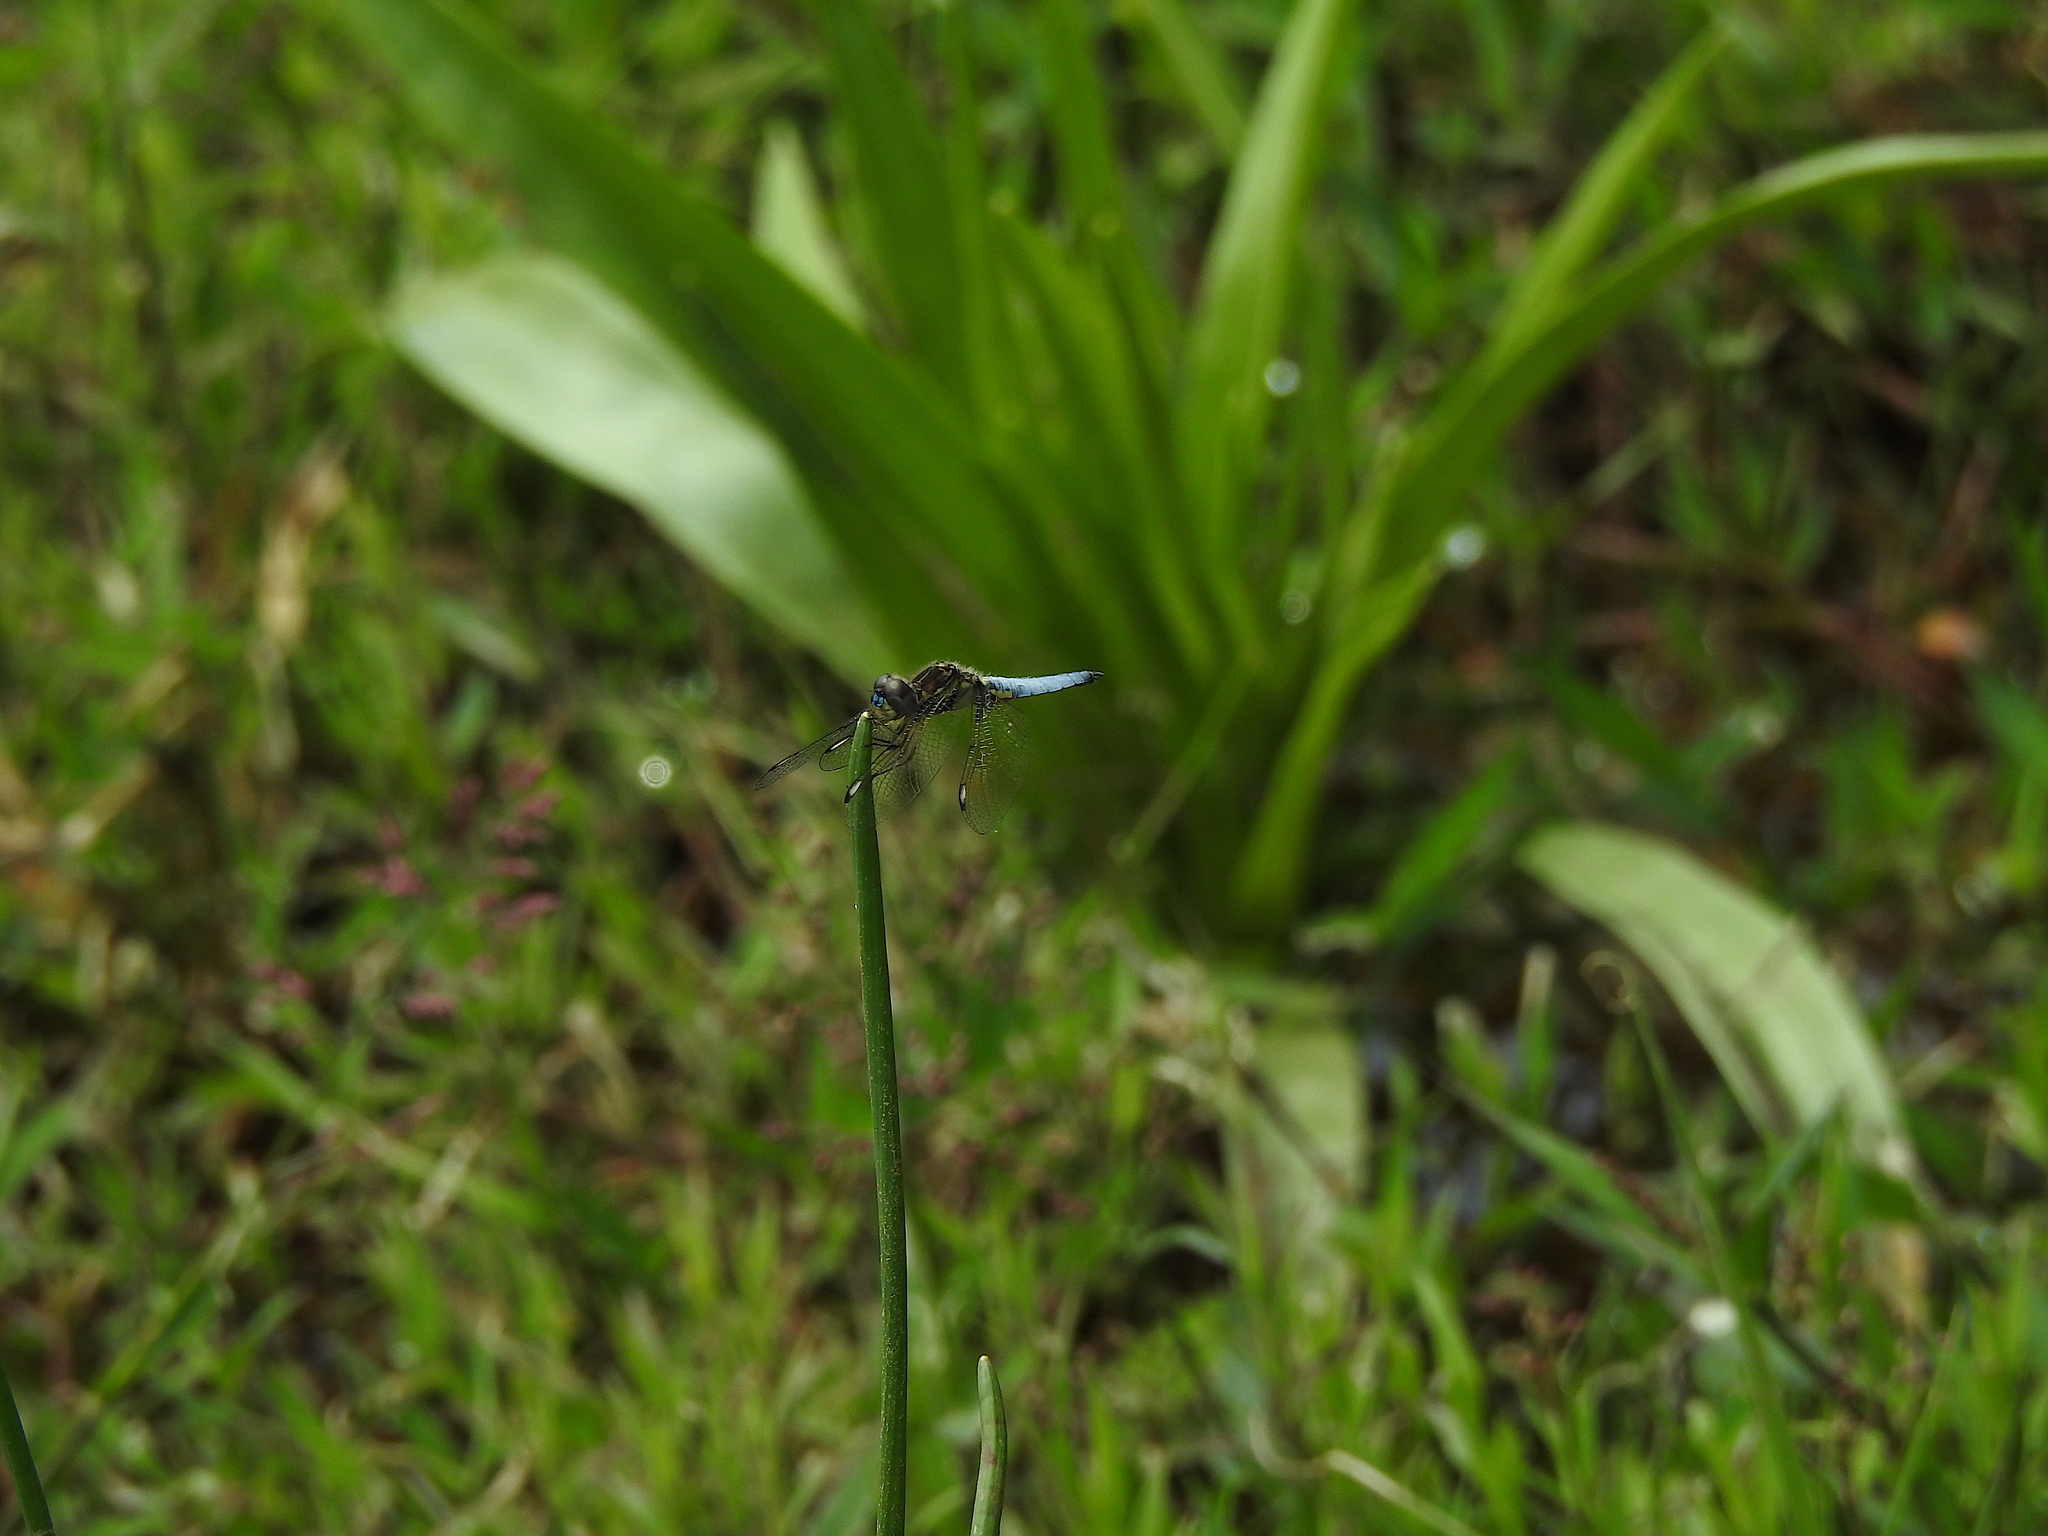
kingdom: Animalia
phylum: Arthropoda
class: Insecta
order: Odonata
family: Libellulidae
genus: Palpopleura
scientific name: Palpopleura sexmaculata
